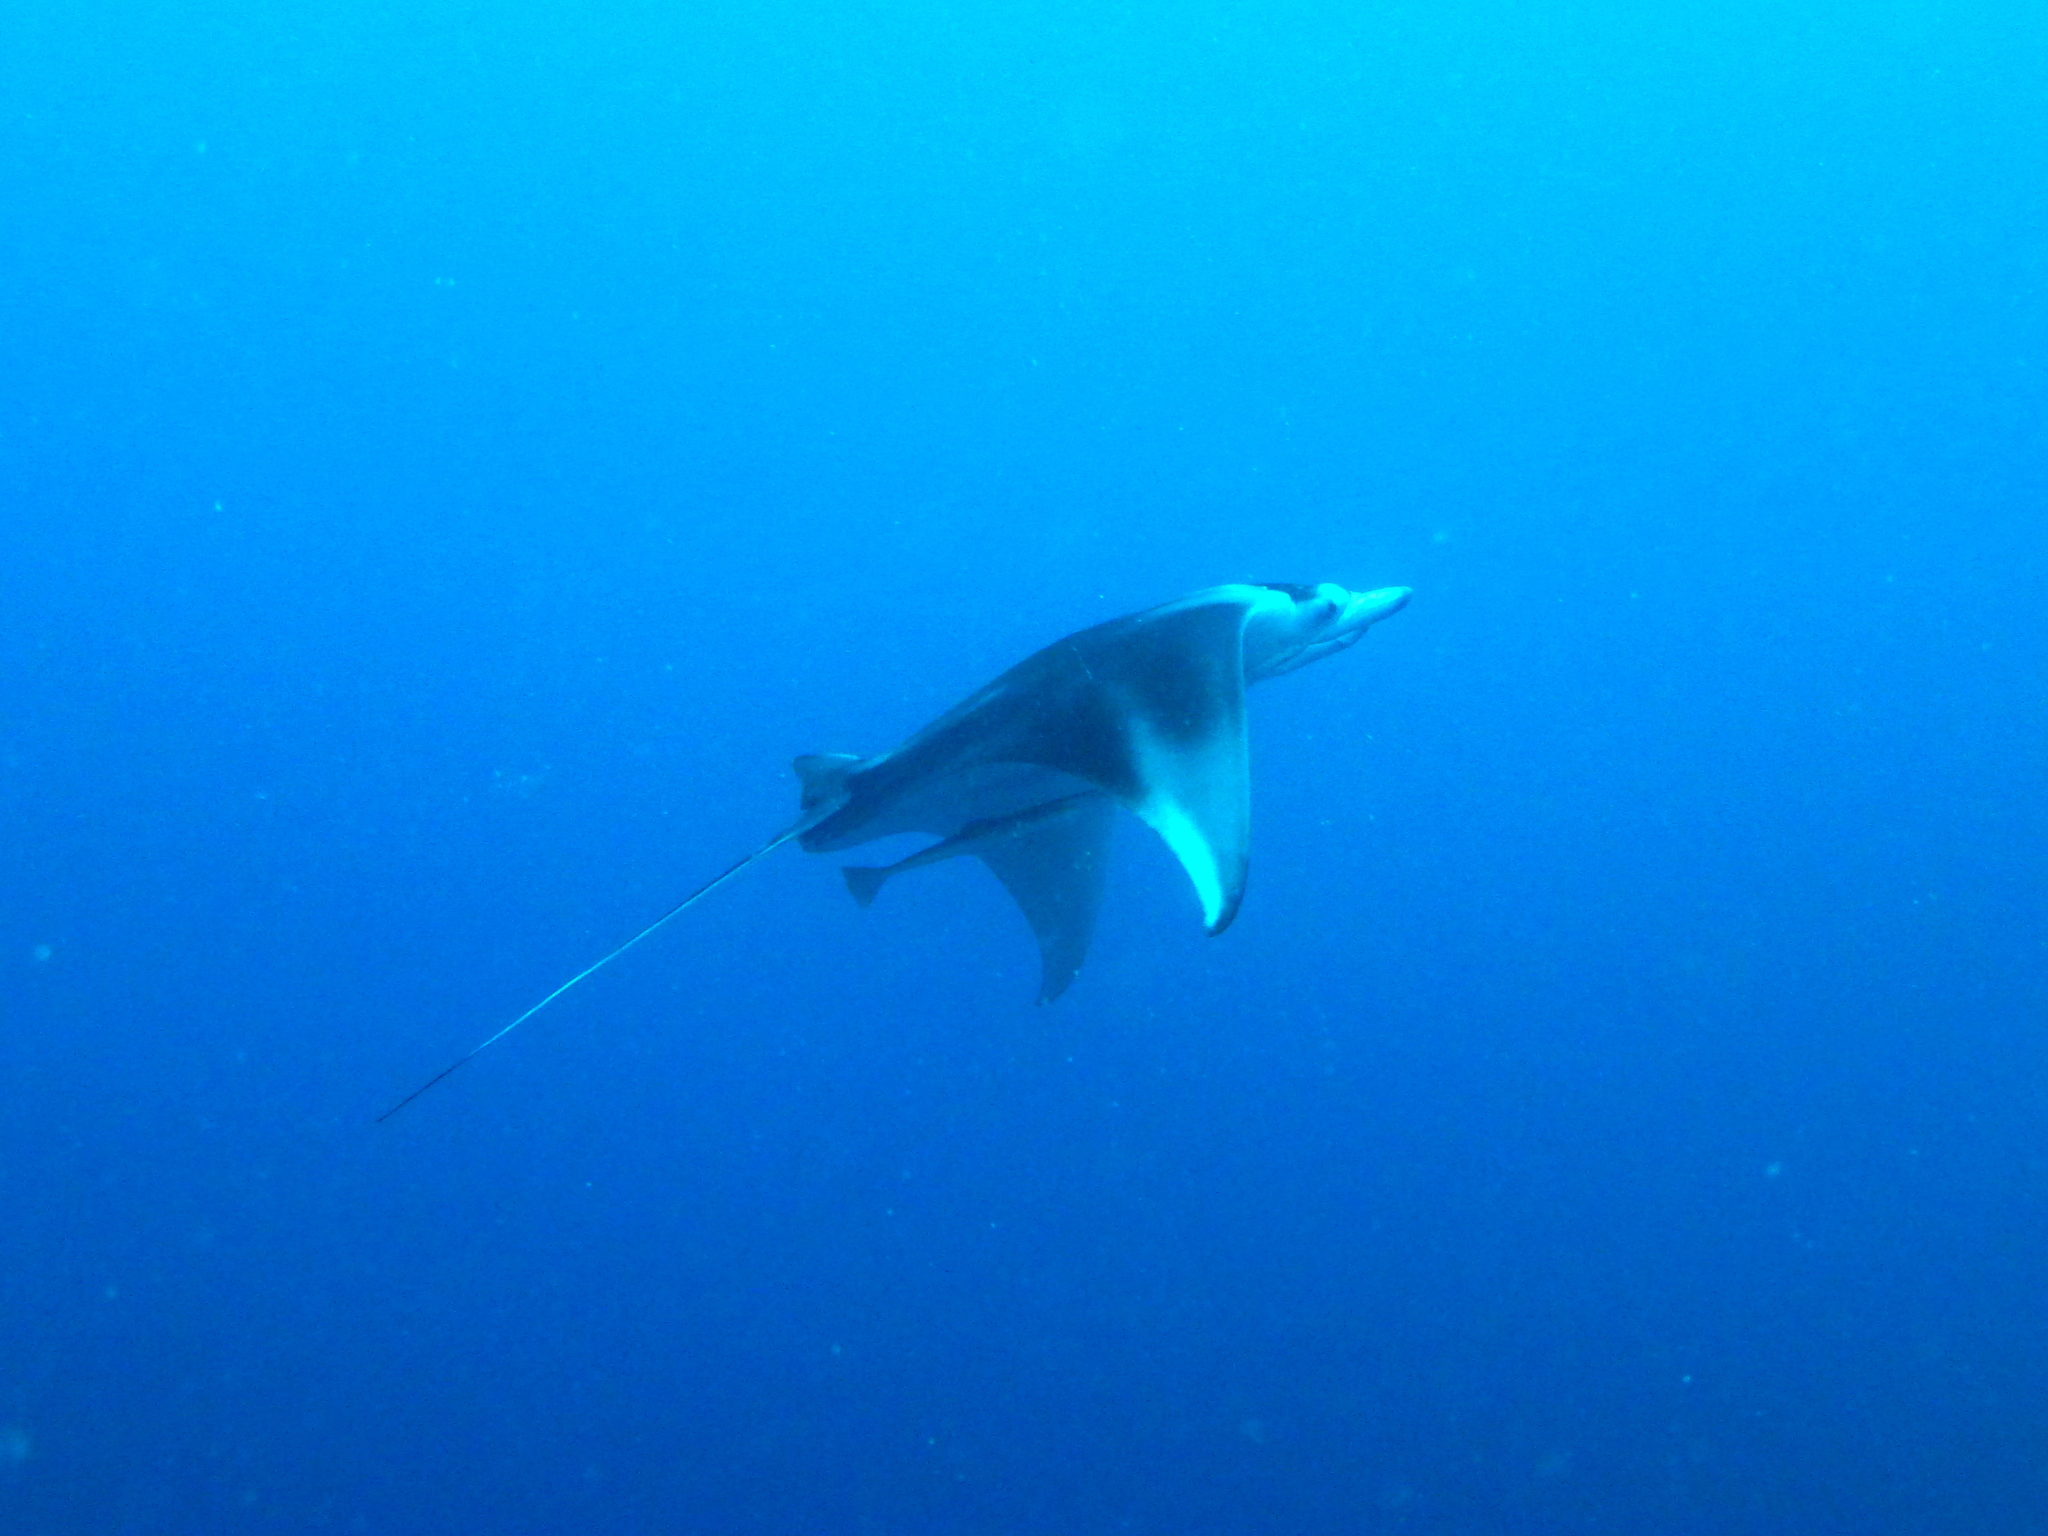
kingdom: Animalia
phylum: Chordata
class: Elasmobranchii
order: Myliobatiformes
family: Myliobatidae
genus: Mobula
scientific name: Mobula alfredi
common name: Reef manta ray
